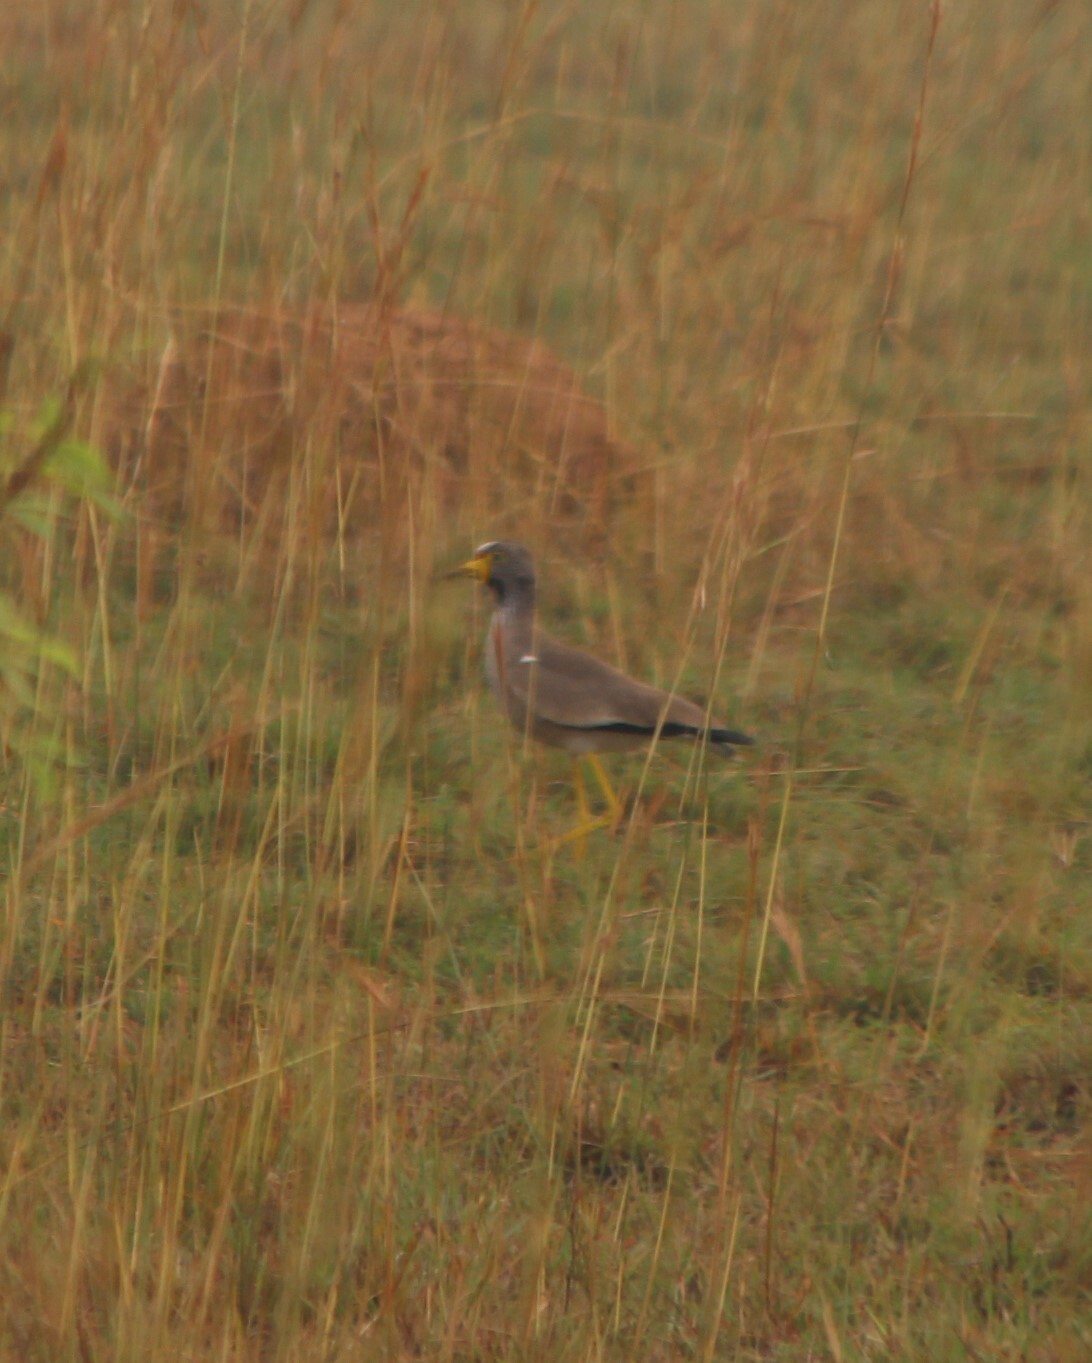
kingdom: Animalia
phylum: Chordata
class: Aves
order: Charadriiformes
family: Charadriidae
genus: Vanellus
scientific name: Vanellus senegallus
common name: African wattled lapwing
